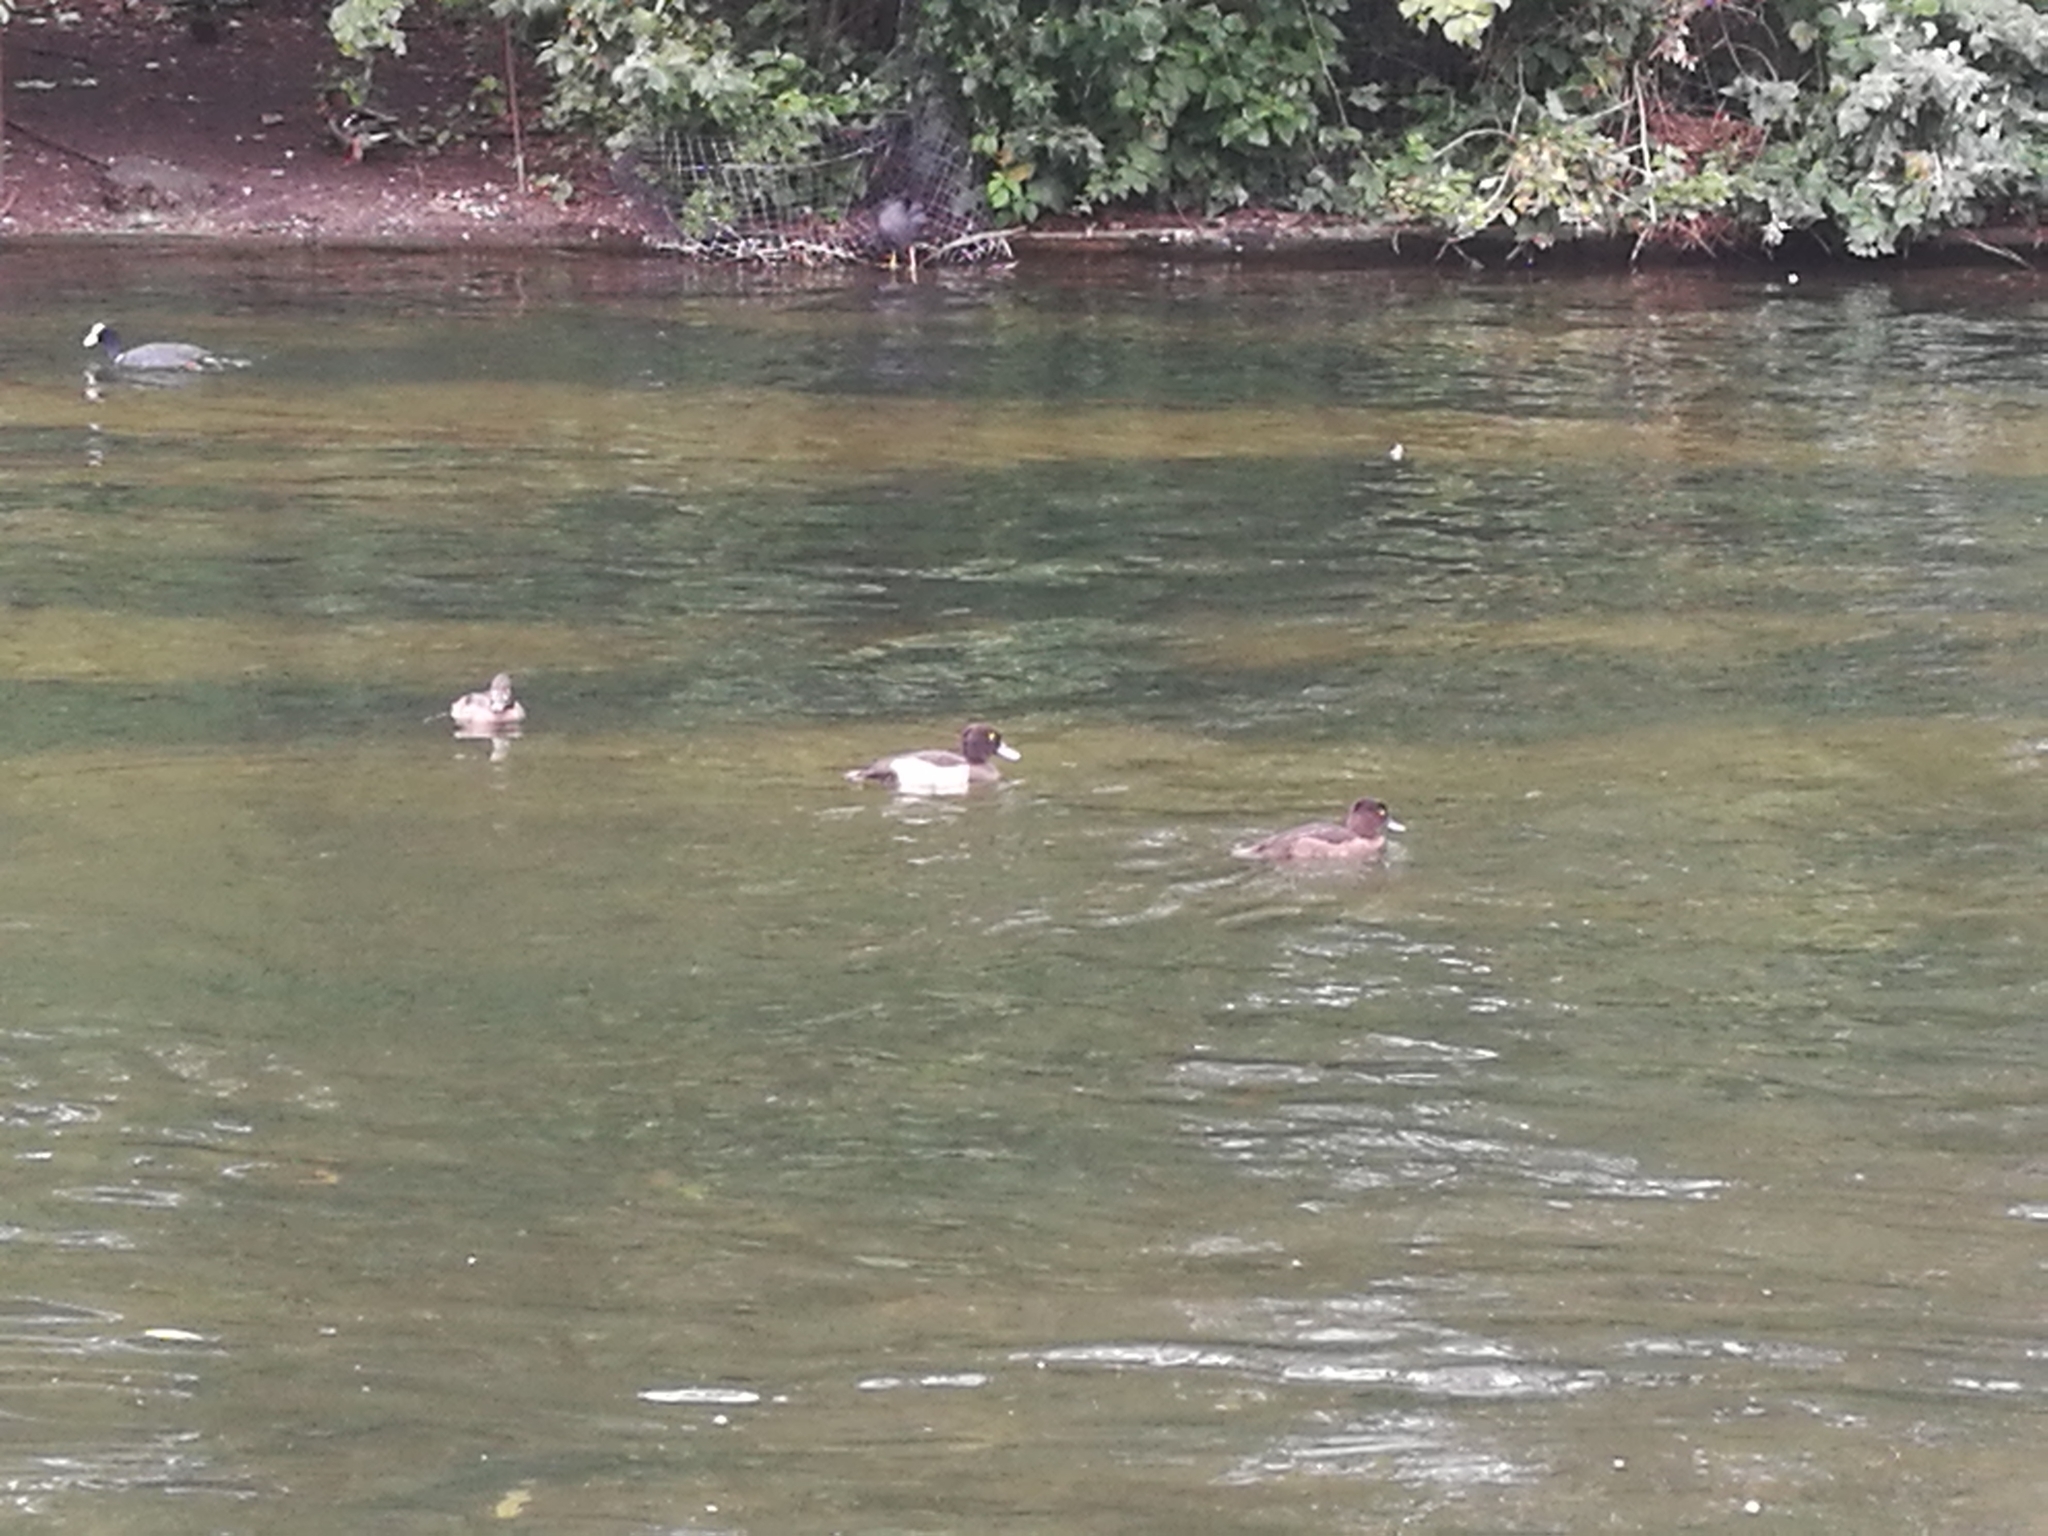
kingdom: Animalia
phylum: Chordata
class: Aves
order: Anseriformes
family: Anatidae
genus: Aythya
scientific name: Aythya fuligula
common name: Tufted duck
